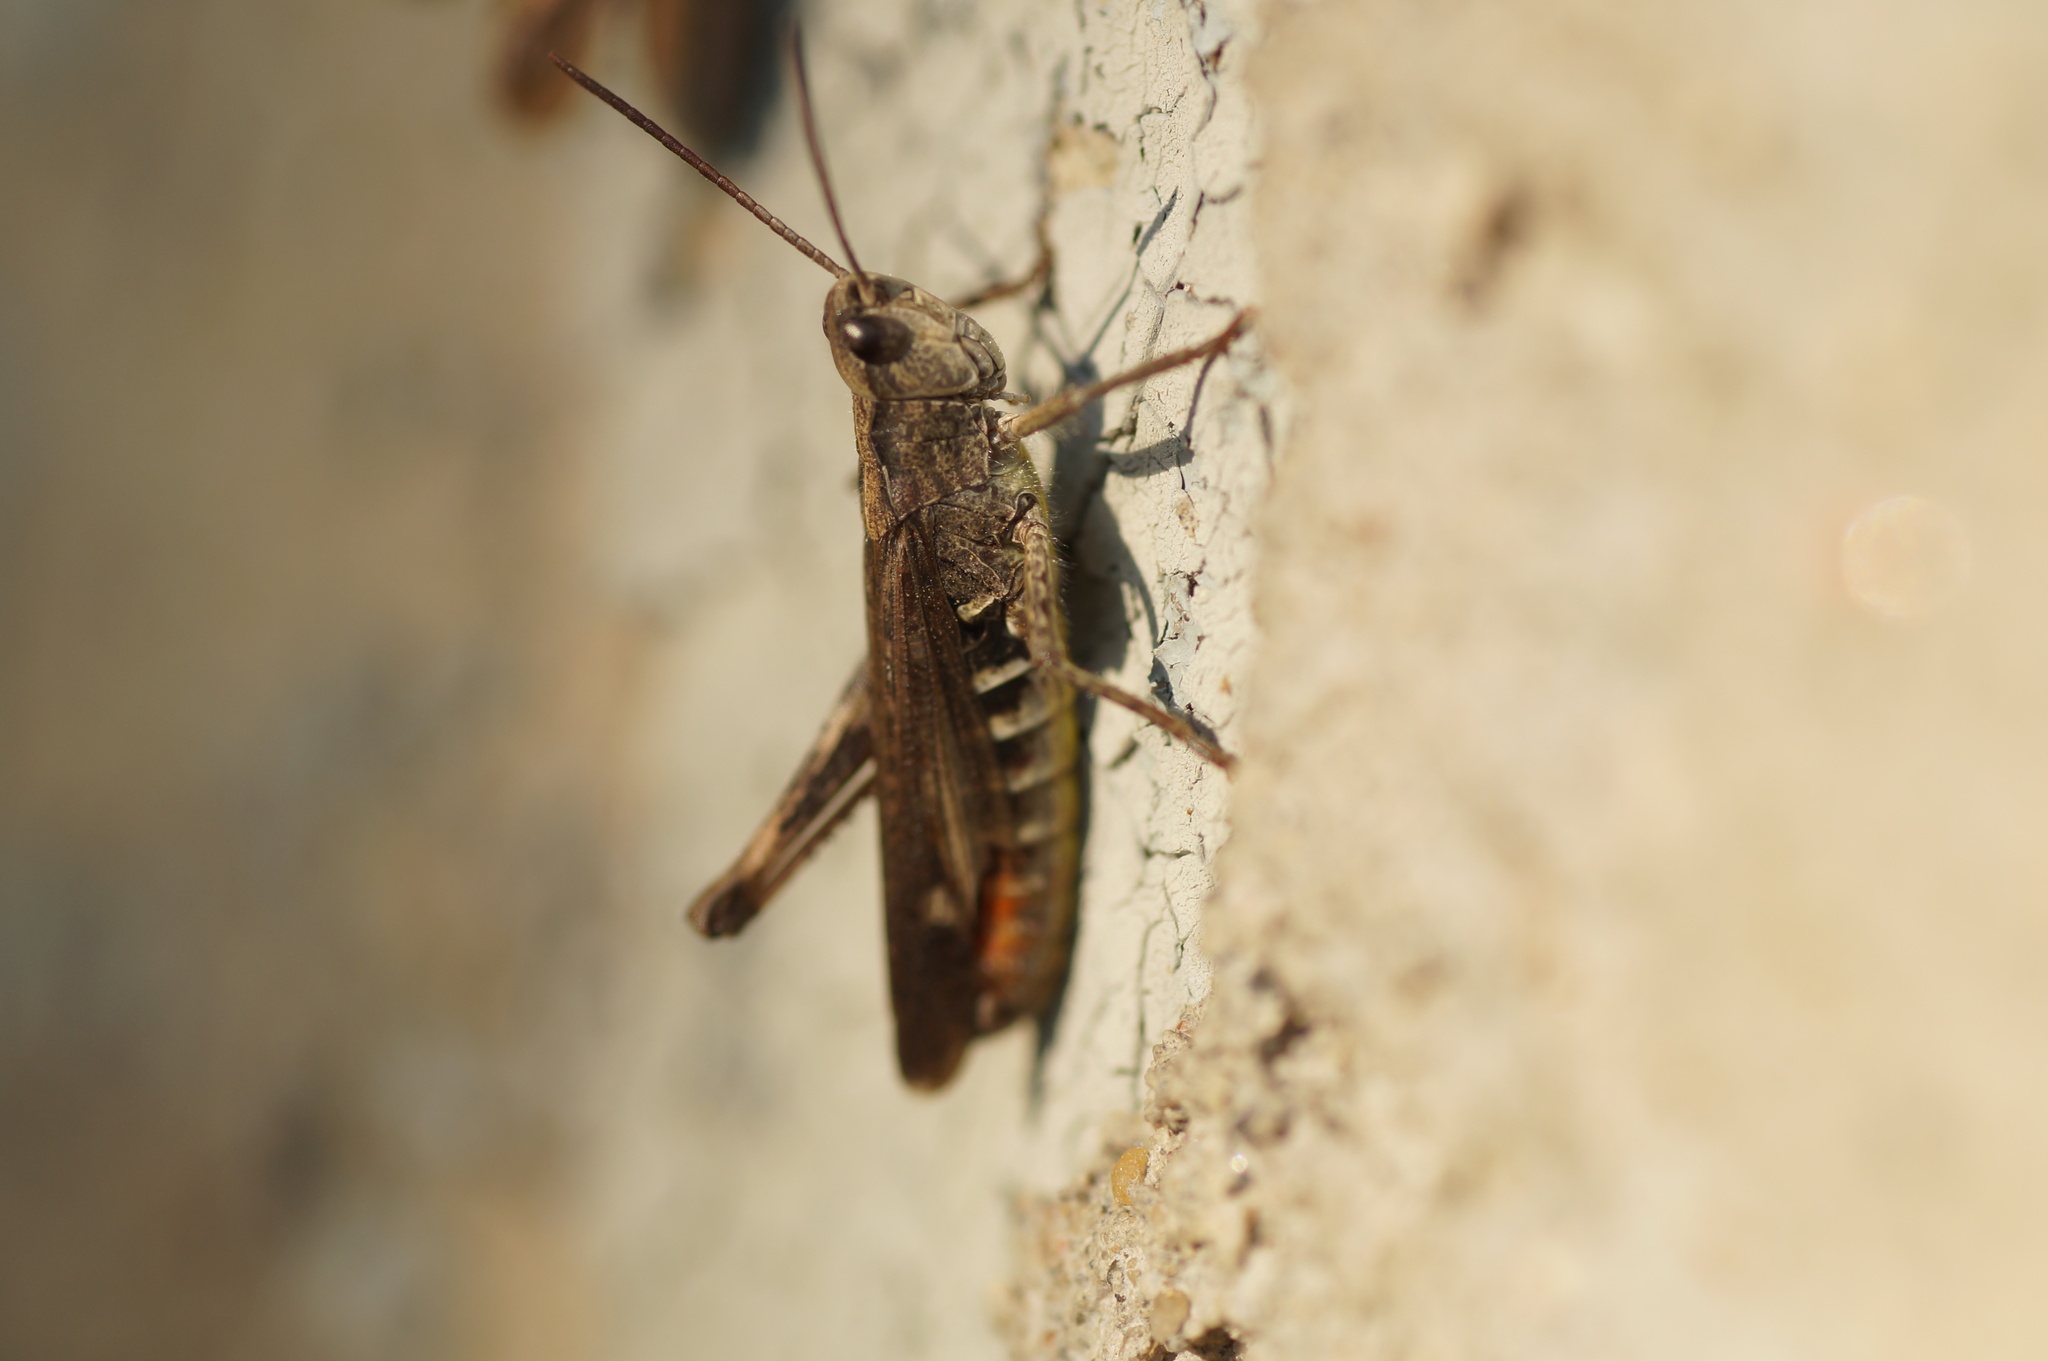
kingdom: Animalia
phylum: Arthropoda
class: Insecta
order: Orthoptera
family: Acrididae
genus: Glyptobothrus
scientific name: Glyptobothrus
